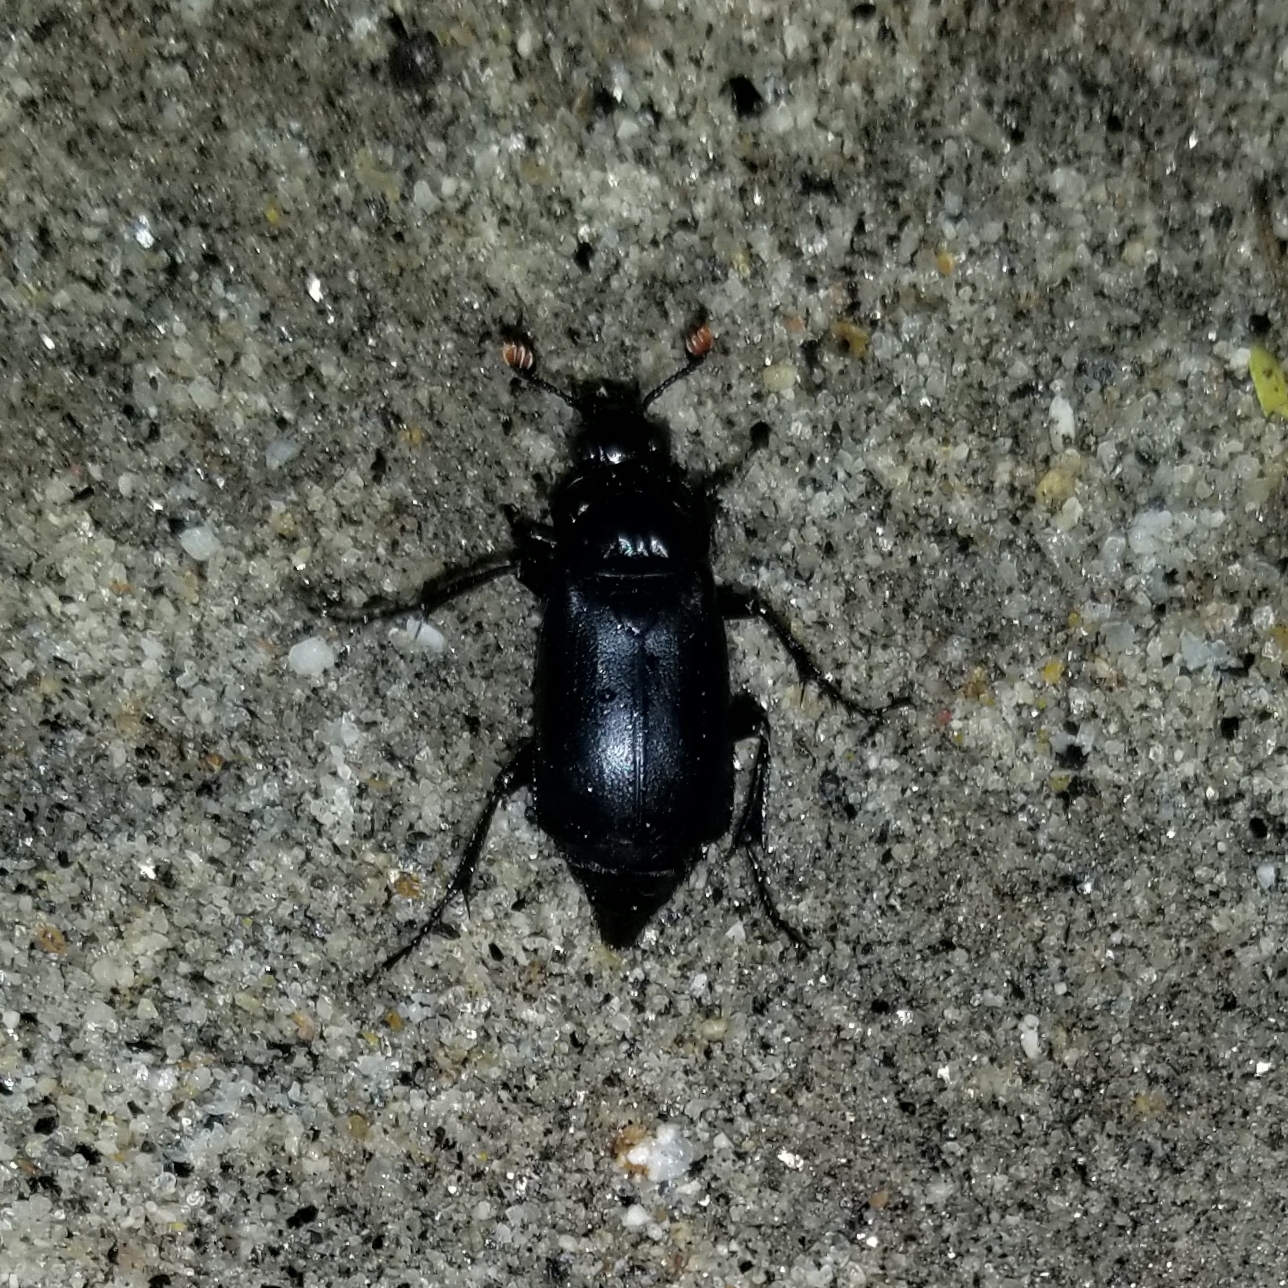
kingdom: Animalia
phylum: Arthropoda
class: Insecta
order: Coleoptera
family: Staphylinidae
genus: Nicrophorus
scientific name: Nicrophorus nigrita
